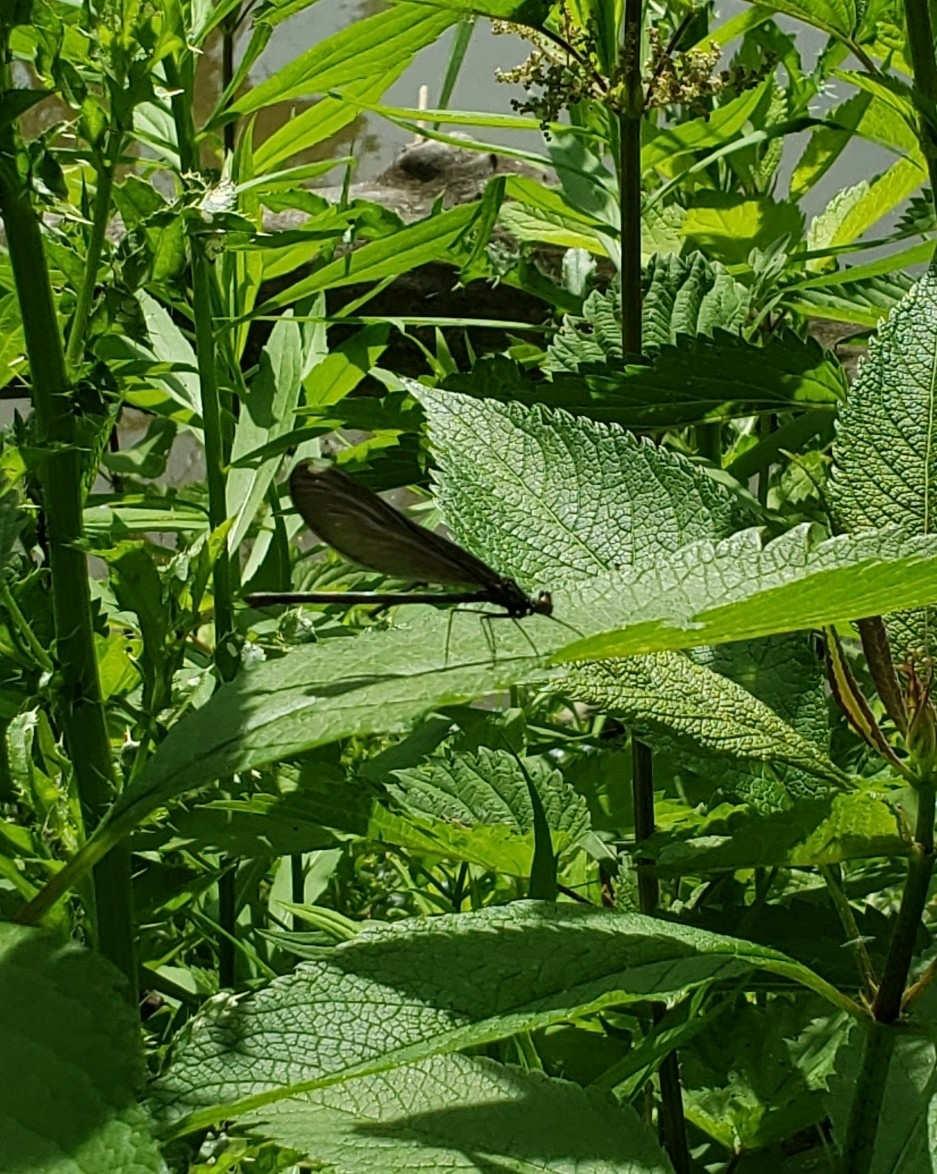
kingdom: Animalia
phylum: Arthropoda
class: Insecta
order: Odonata
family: Calopterygidae
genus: Calopteryx
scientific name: Calopteryx maculata
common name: Ebony jewelwing
